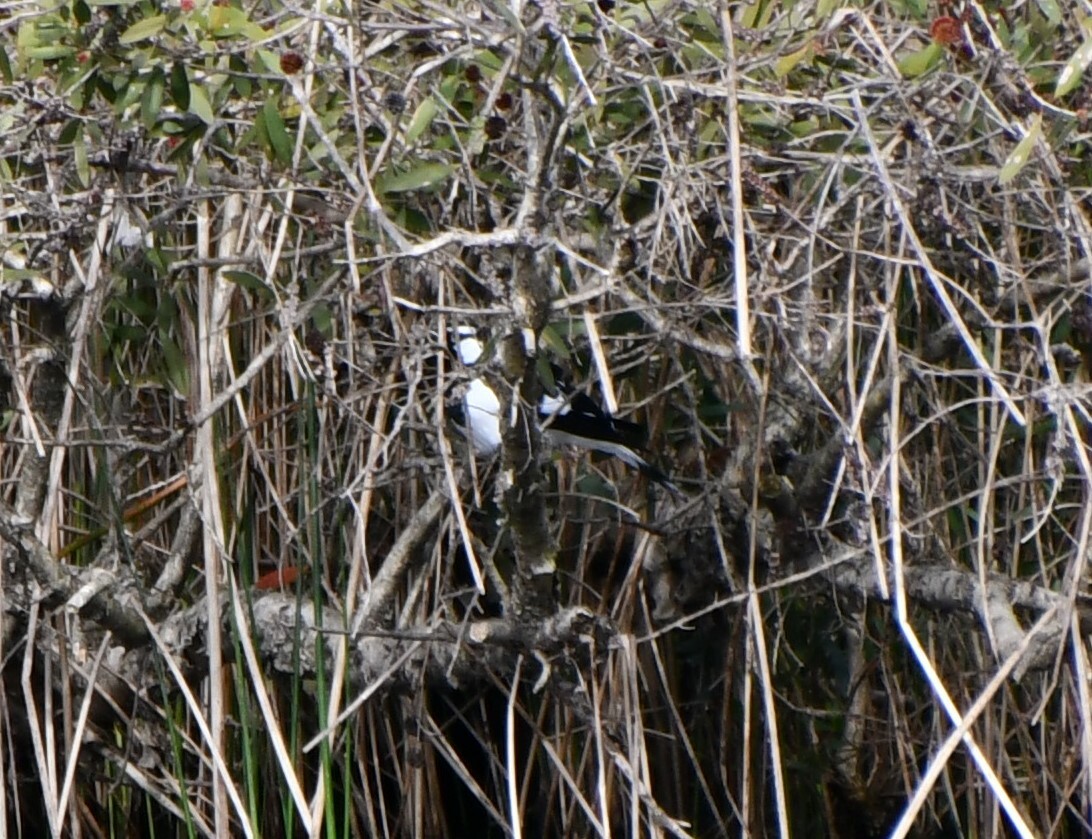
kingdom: Animalia
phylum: Chordata
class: Aves
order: Passeriformes
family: Monarchidae
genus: Grallina
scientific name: Grallina cyanoleuca
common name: Magpie-lark
